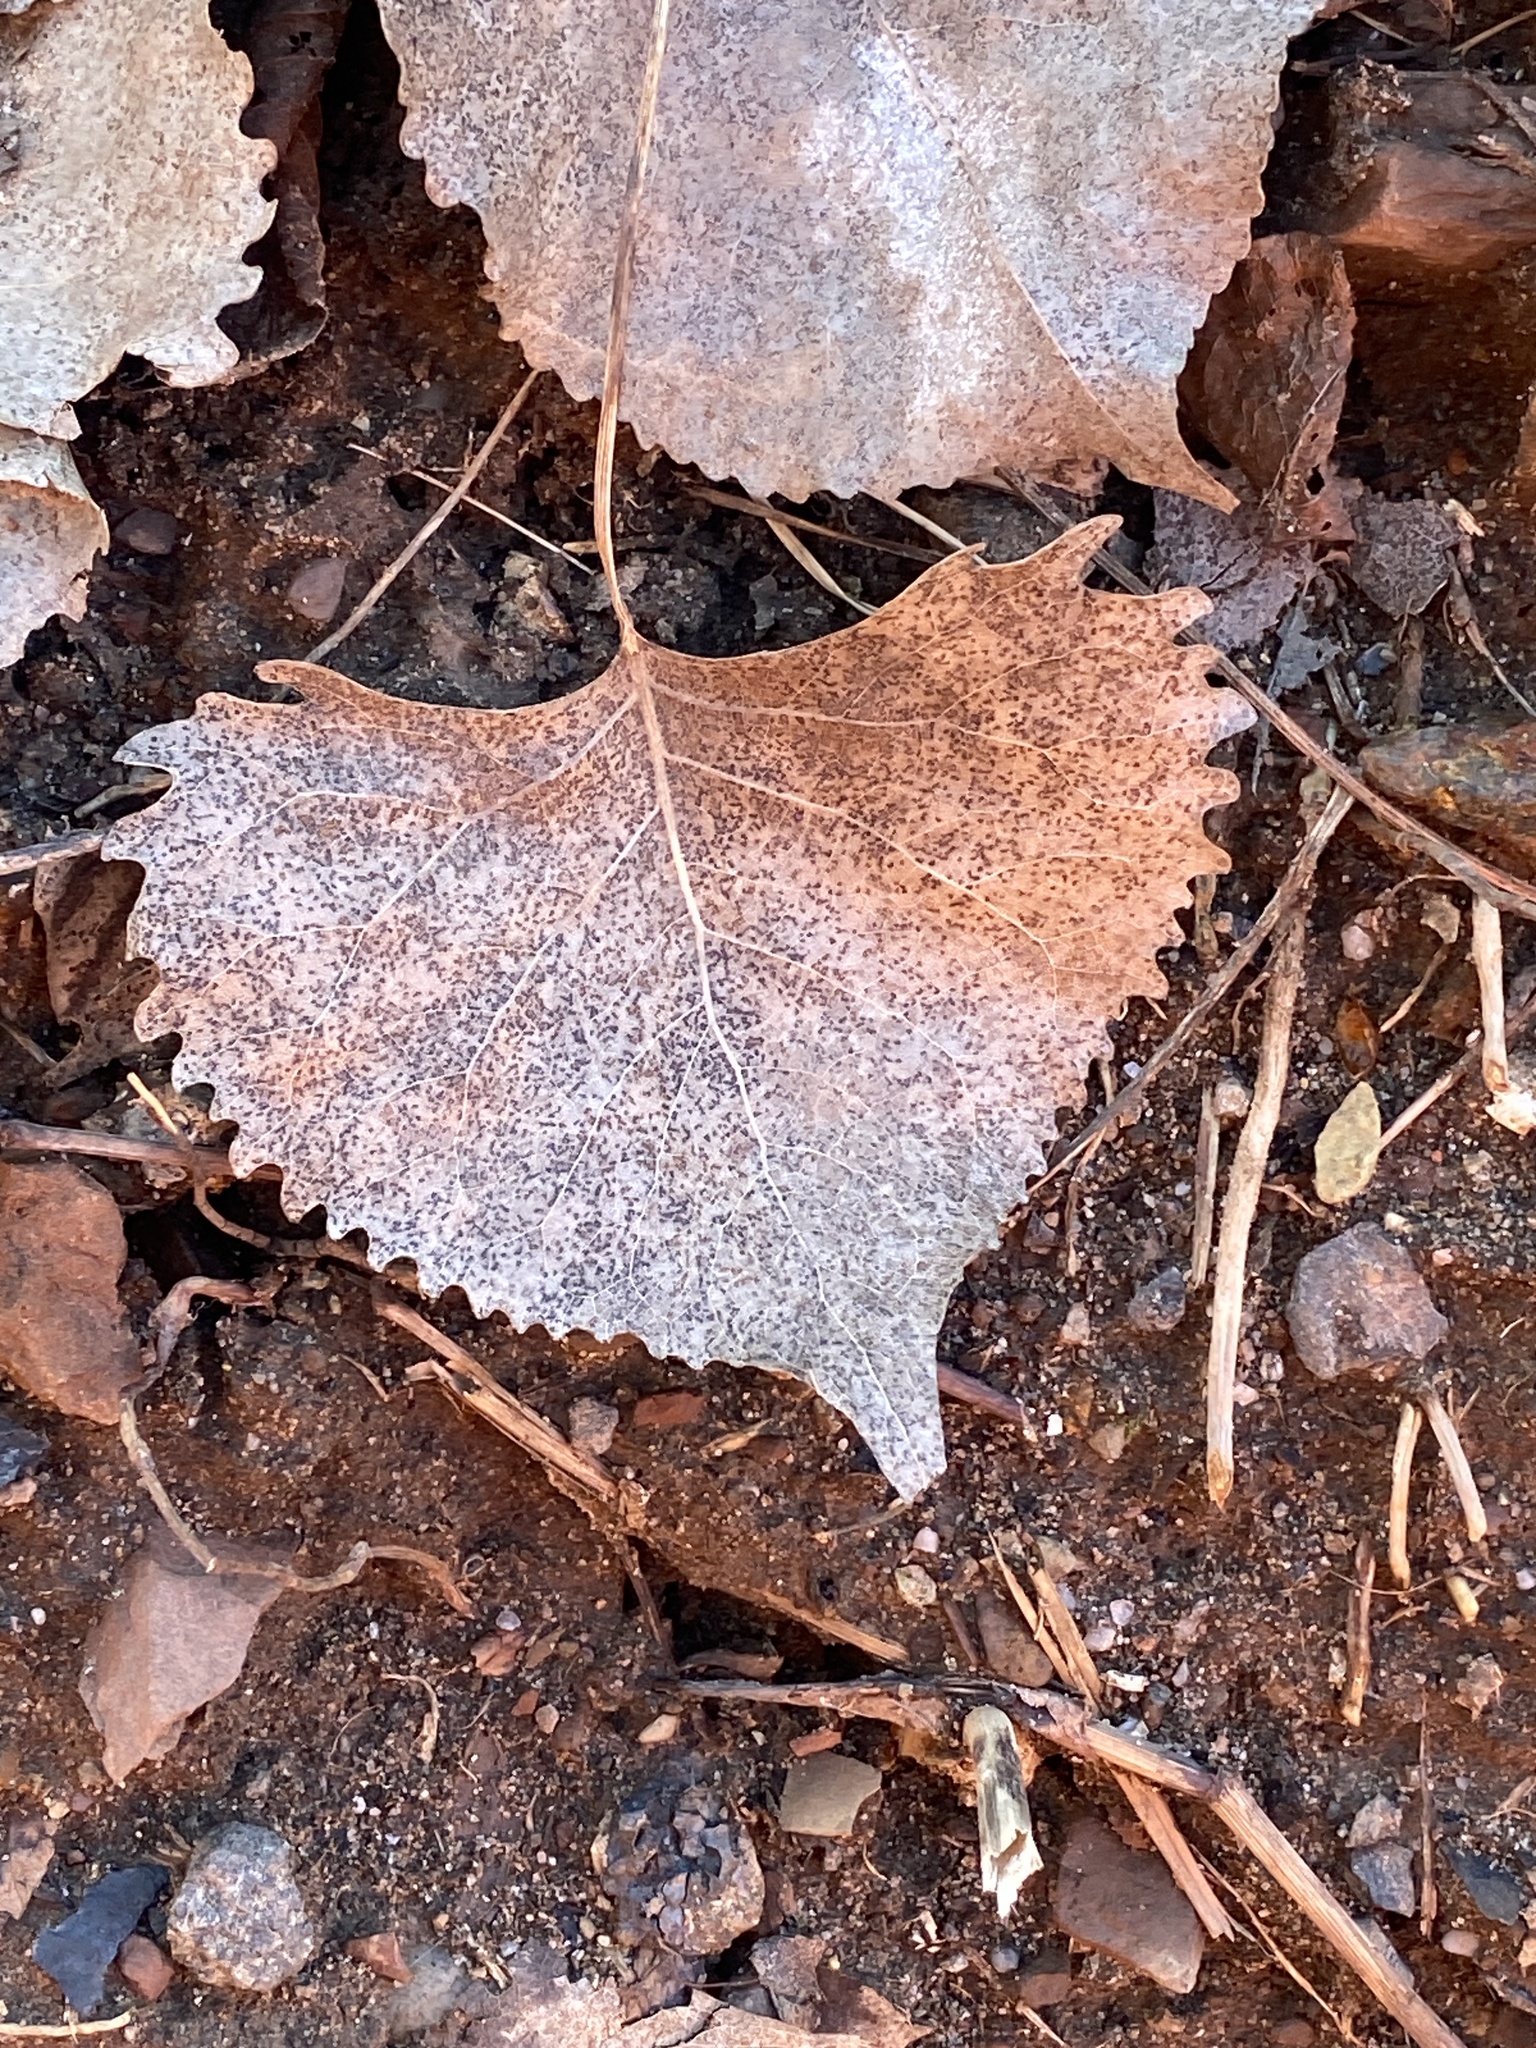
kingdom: Plantae
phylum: Tracheophyta
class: Magnoliopsida
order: Malpighiales
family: Salicaceae
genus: Populus
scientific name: Populus deltoides
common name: Eastern cottonwood
